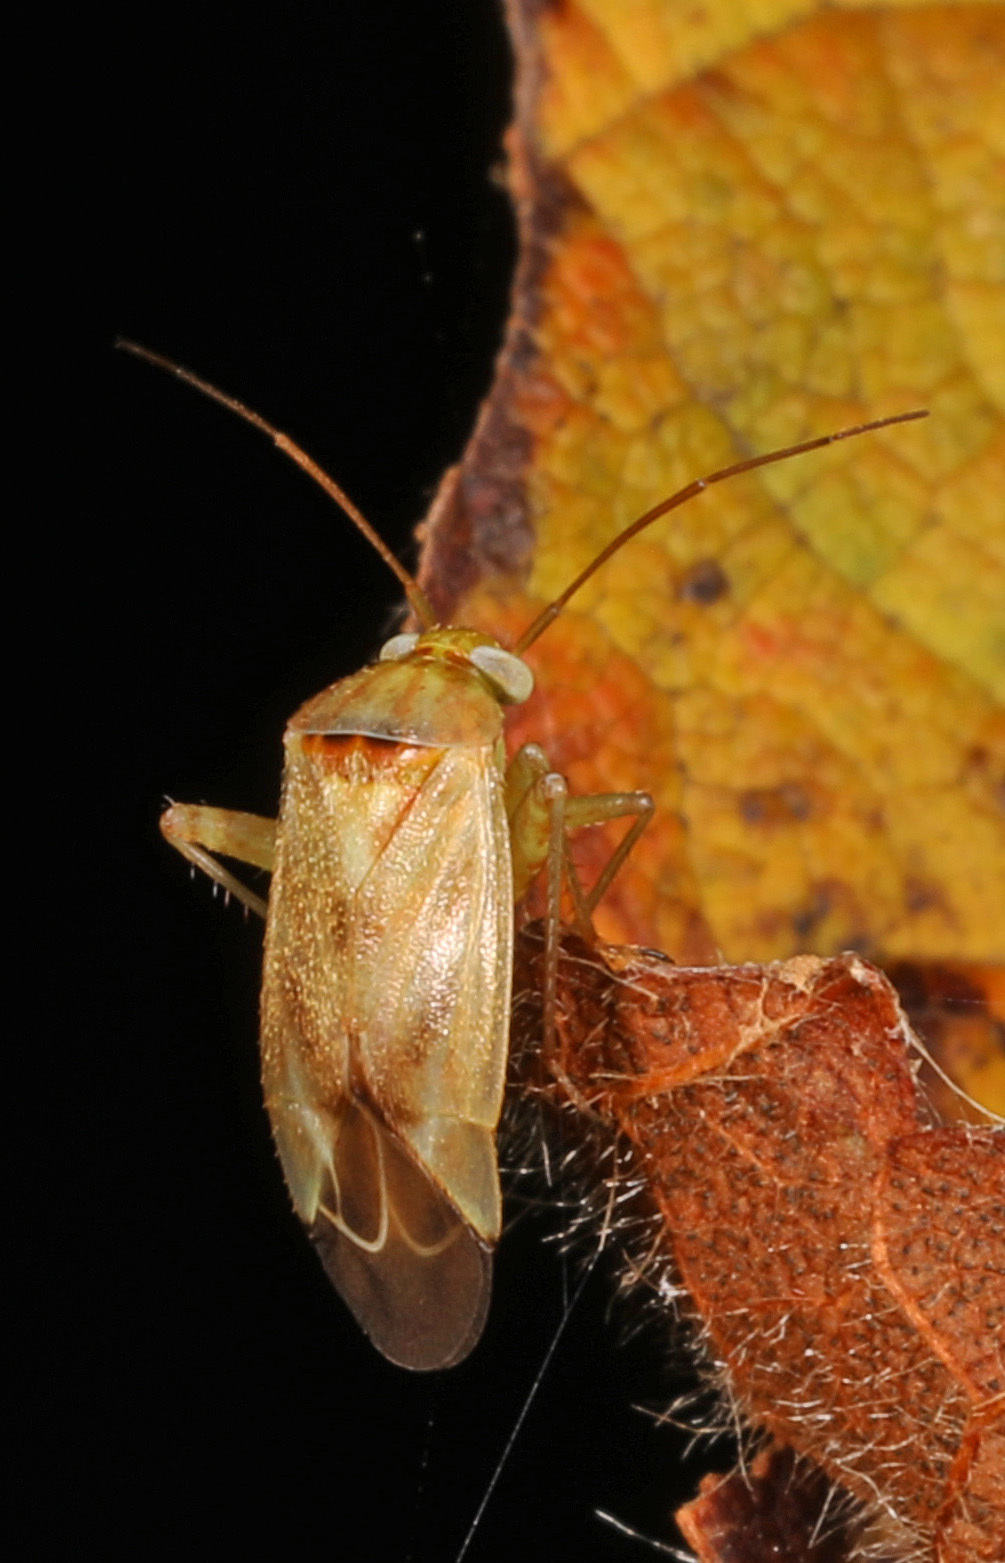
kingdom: Animalia
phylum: Arthropoda
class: Insecta
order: Hemiptera
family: Miridae
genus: Taylorilygus
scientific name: Taylorilygus apicalis
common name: Plant bug
